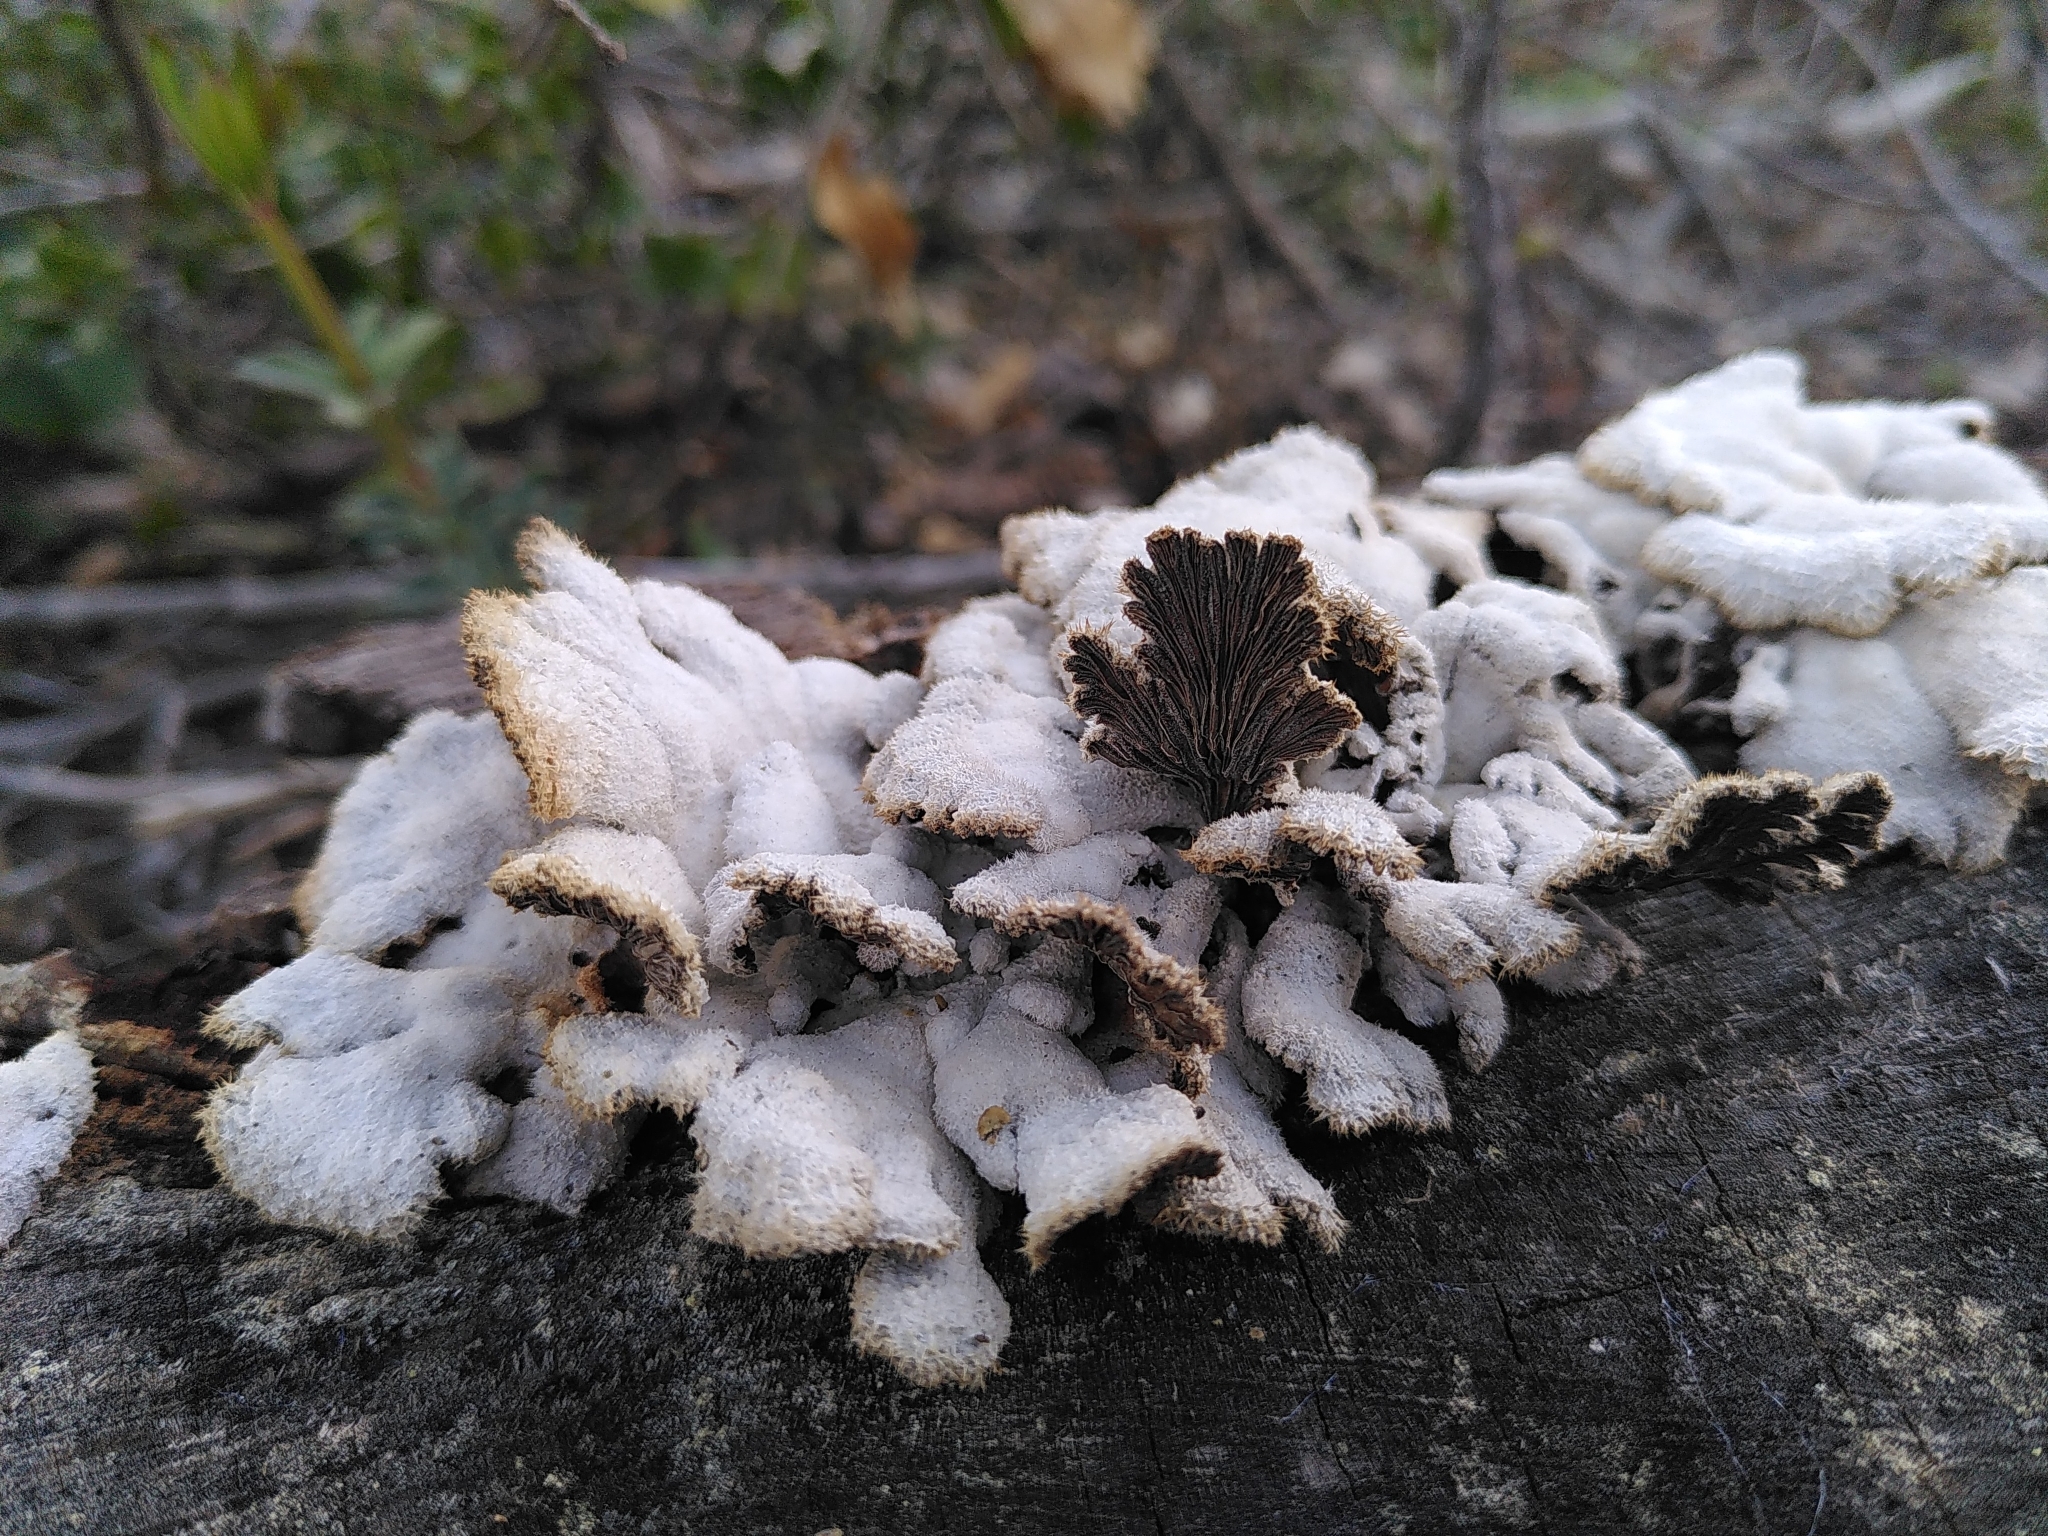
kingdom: Fungi
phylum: Basidiomycota
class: Agaricomycetes
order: Agaricales
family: Schizophyllaceae
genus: Schizophyllum
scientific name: Schizophyllum commune
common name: Common porecrust
